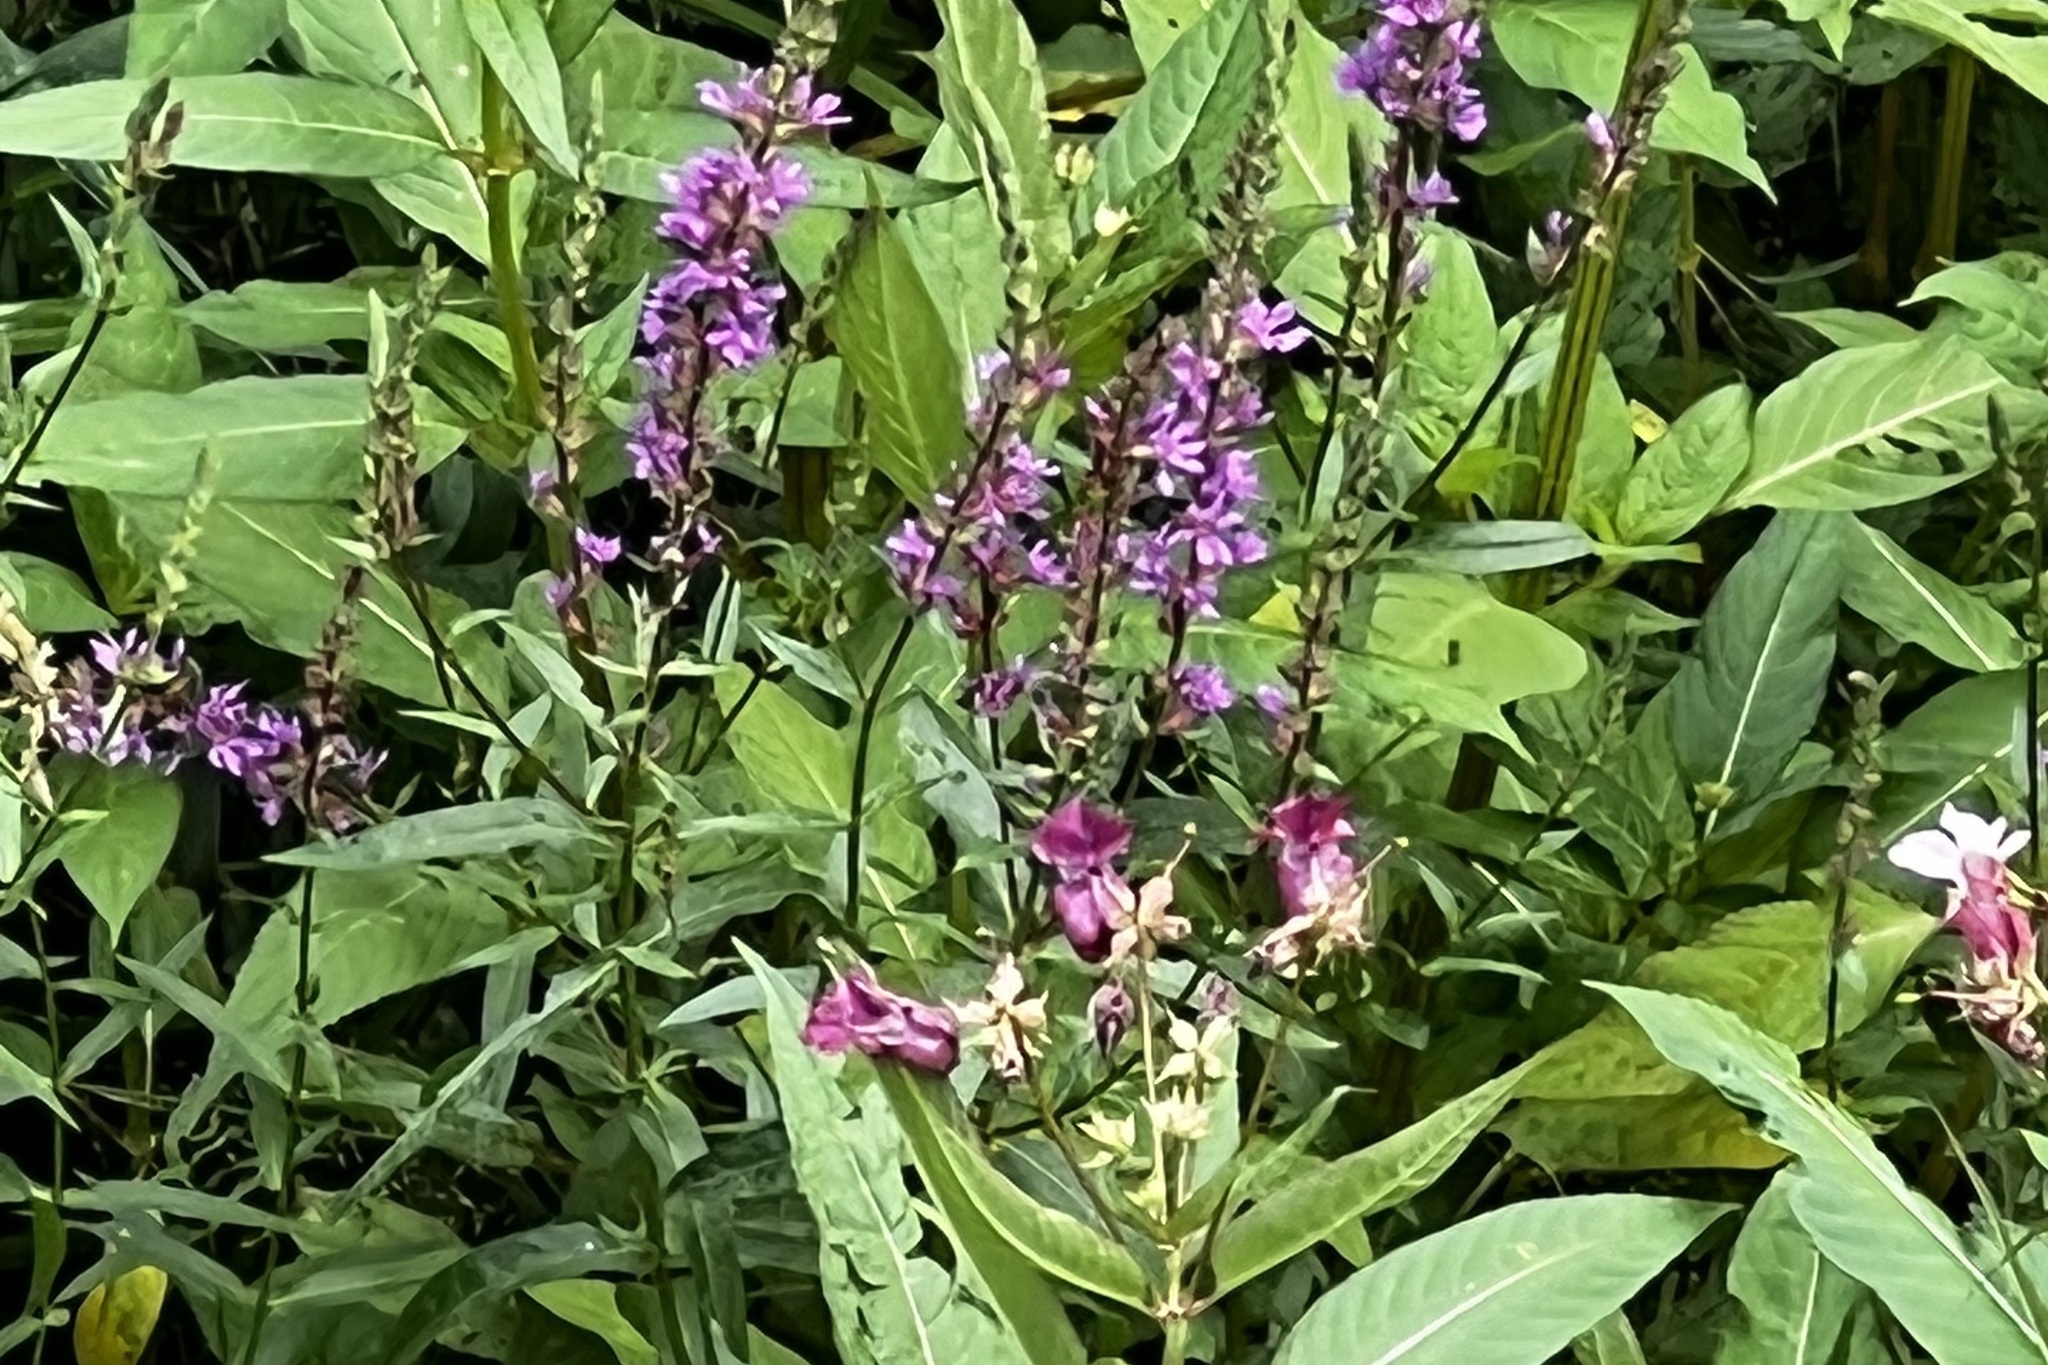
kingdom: Plantae
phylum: Tracheophyta
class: Magnoliopsida
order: Myrtales
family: Lythraceae
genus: Lythrum
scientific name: Lythrum salicaria
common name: Purple loosestrife
